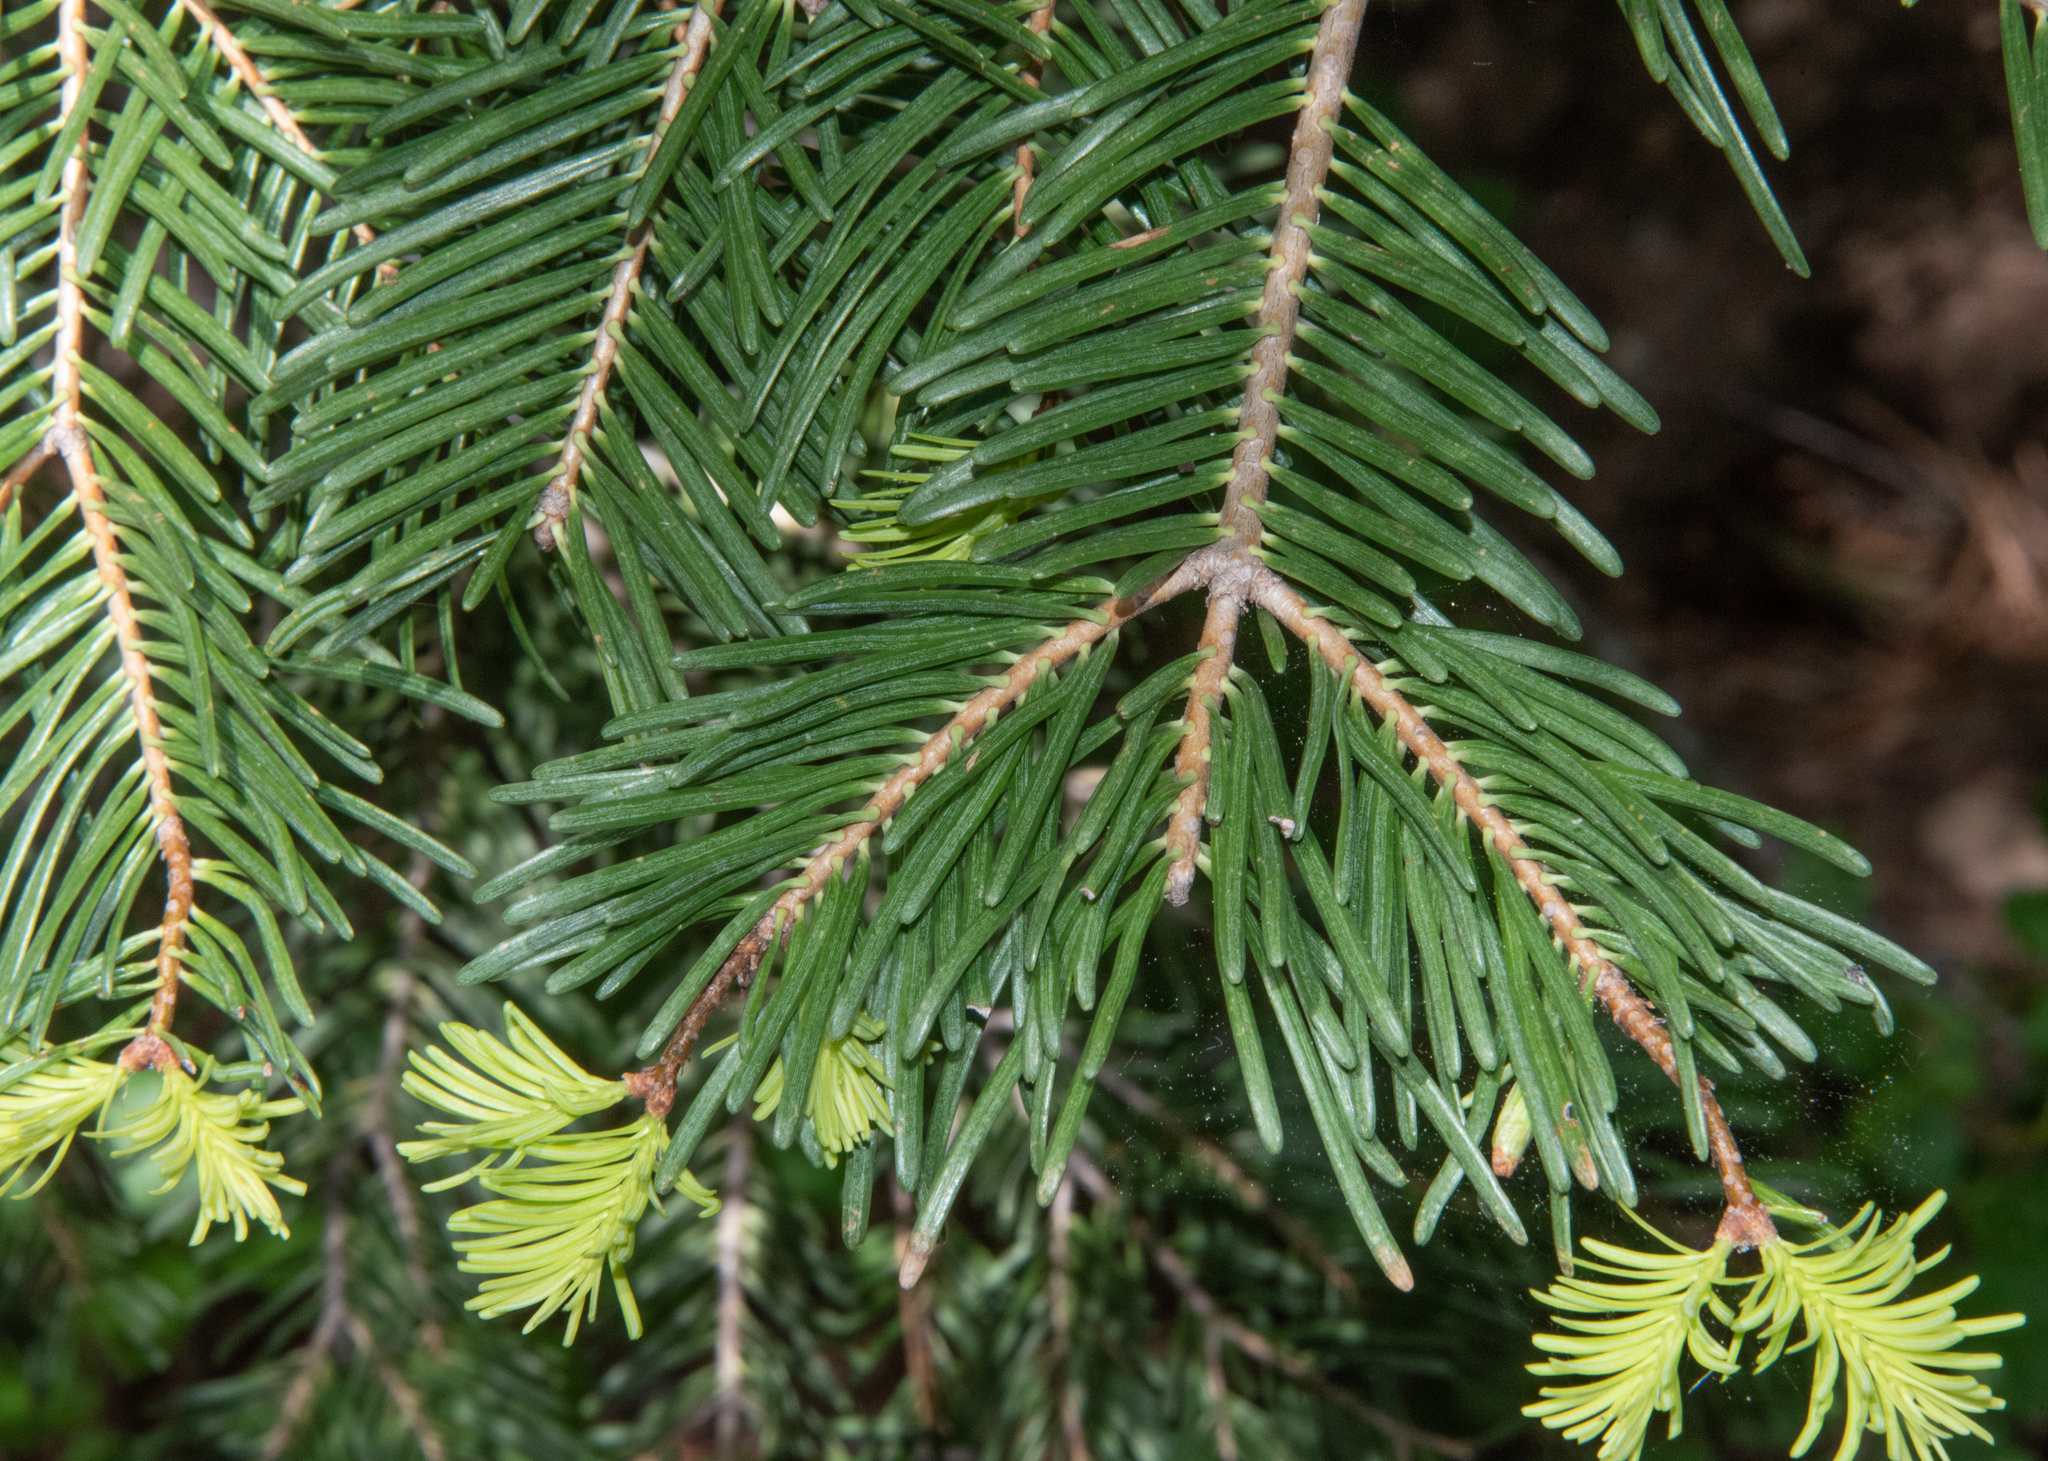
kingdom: Plantae
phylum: Tracheophyta
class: Pinopsida
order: Pinales
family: Pinaceae
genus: Abies
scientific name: Abies concolor
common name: Colorado fir
